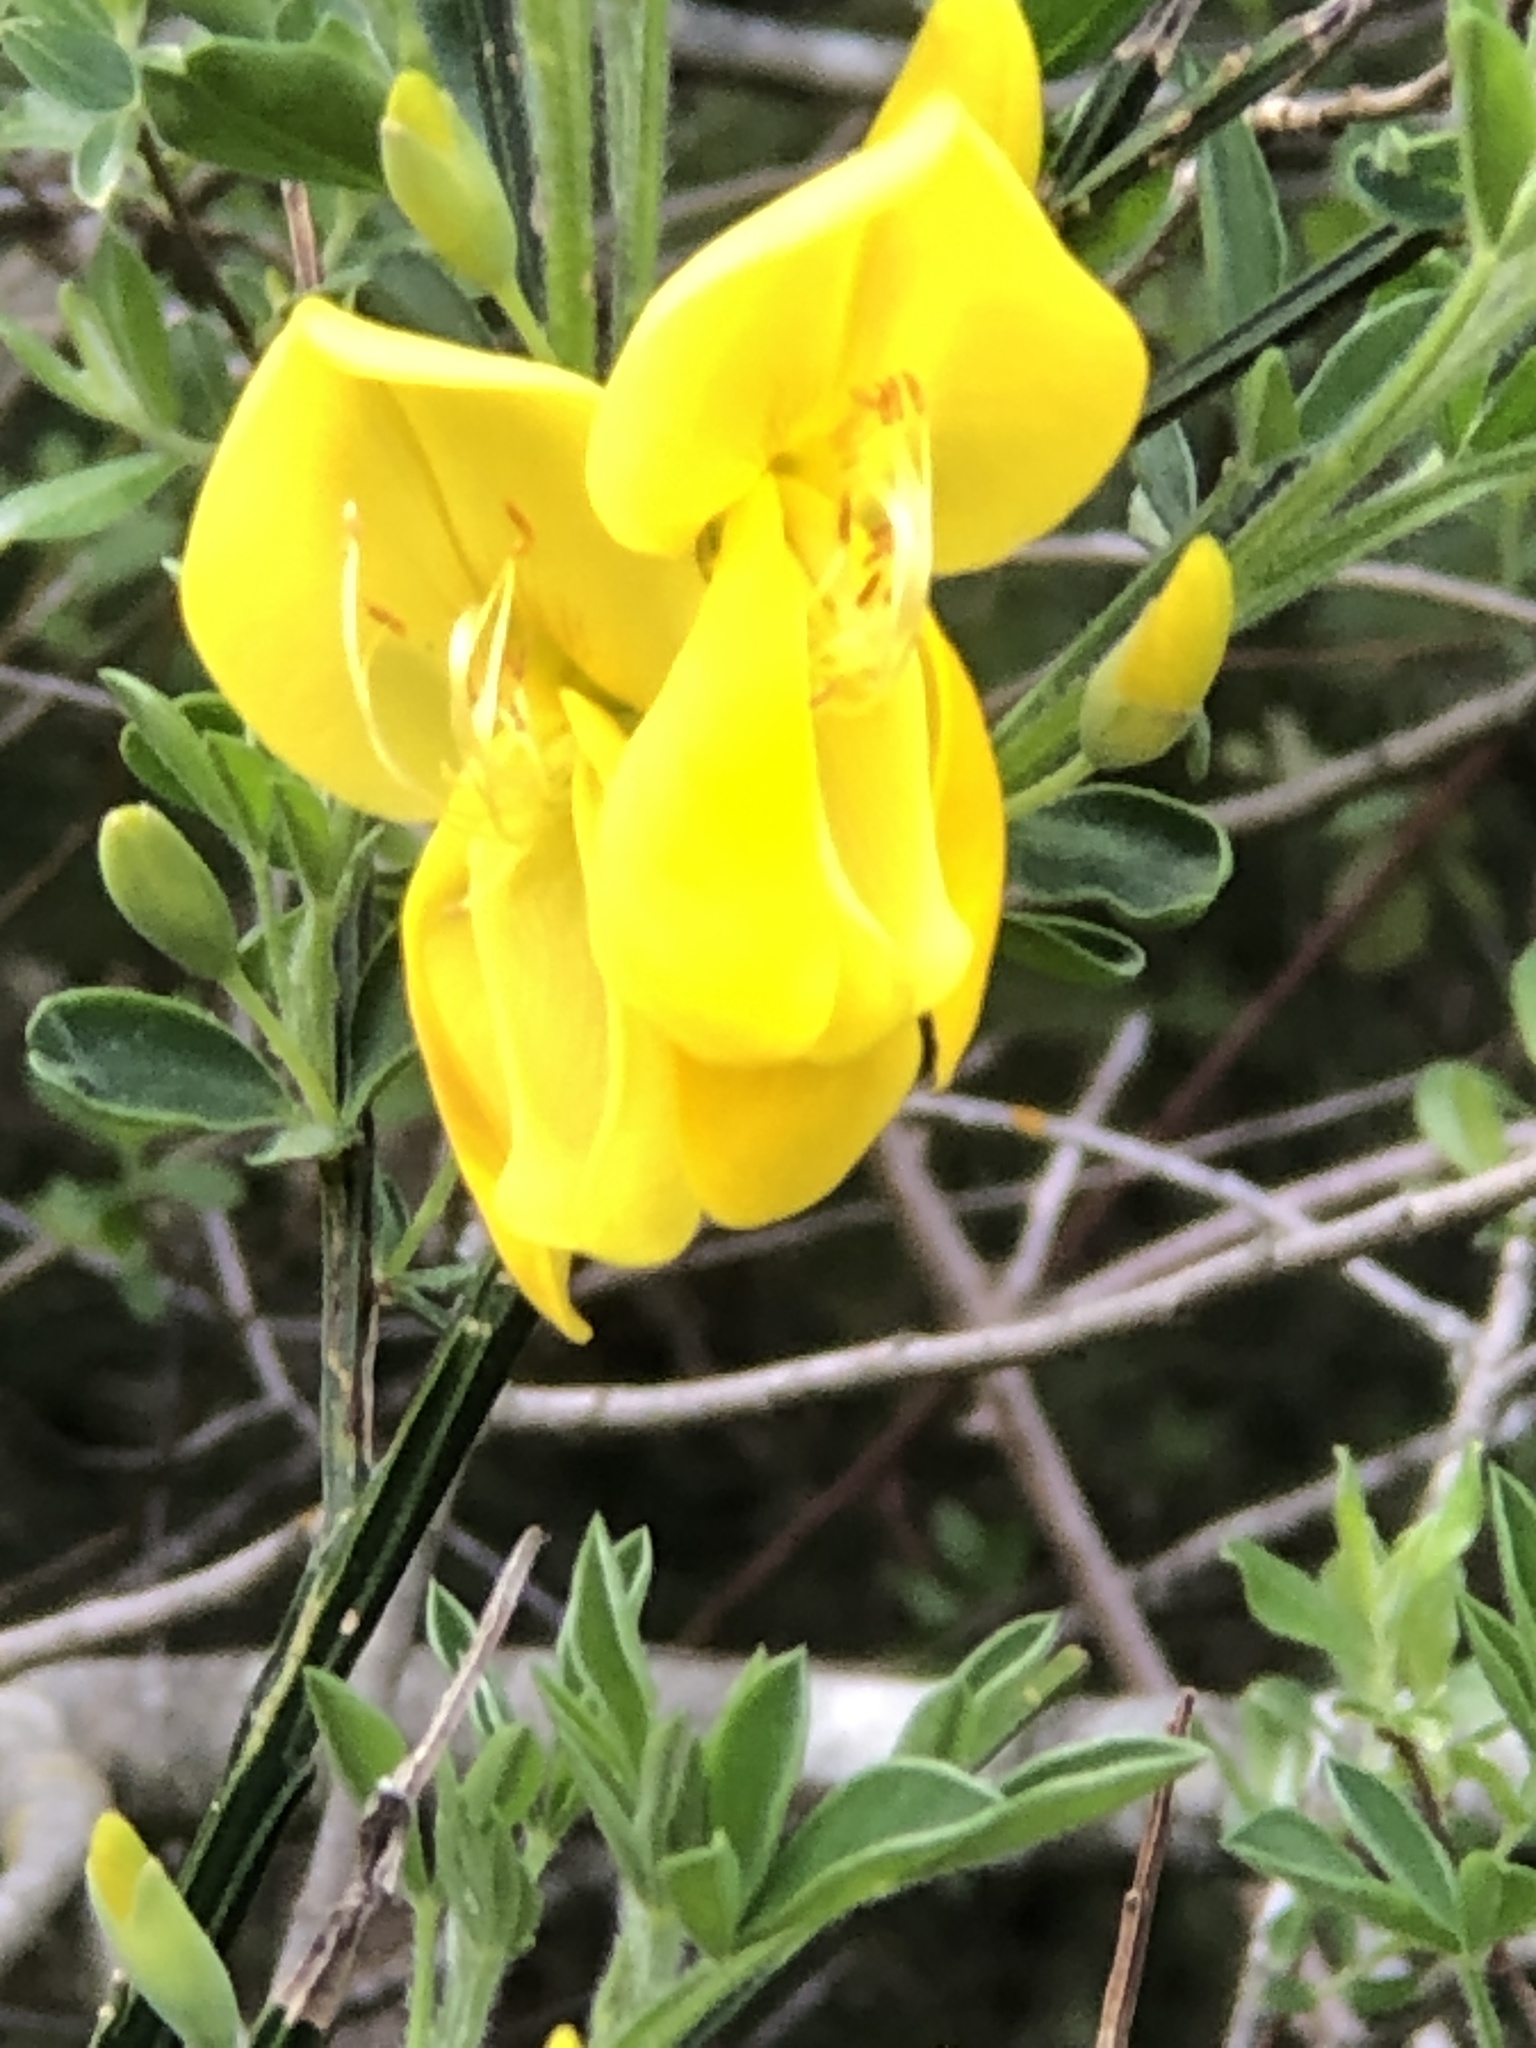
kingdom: Plantae
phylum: Tracheophyta
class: Magnoliopsida
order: Fabales
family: Fabaceae
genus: Cytisus
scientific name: Cytisus scoparius
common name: Scotch broom
